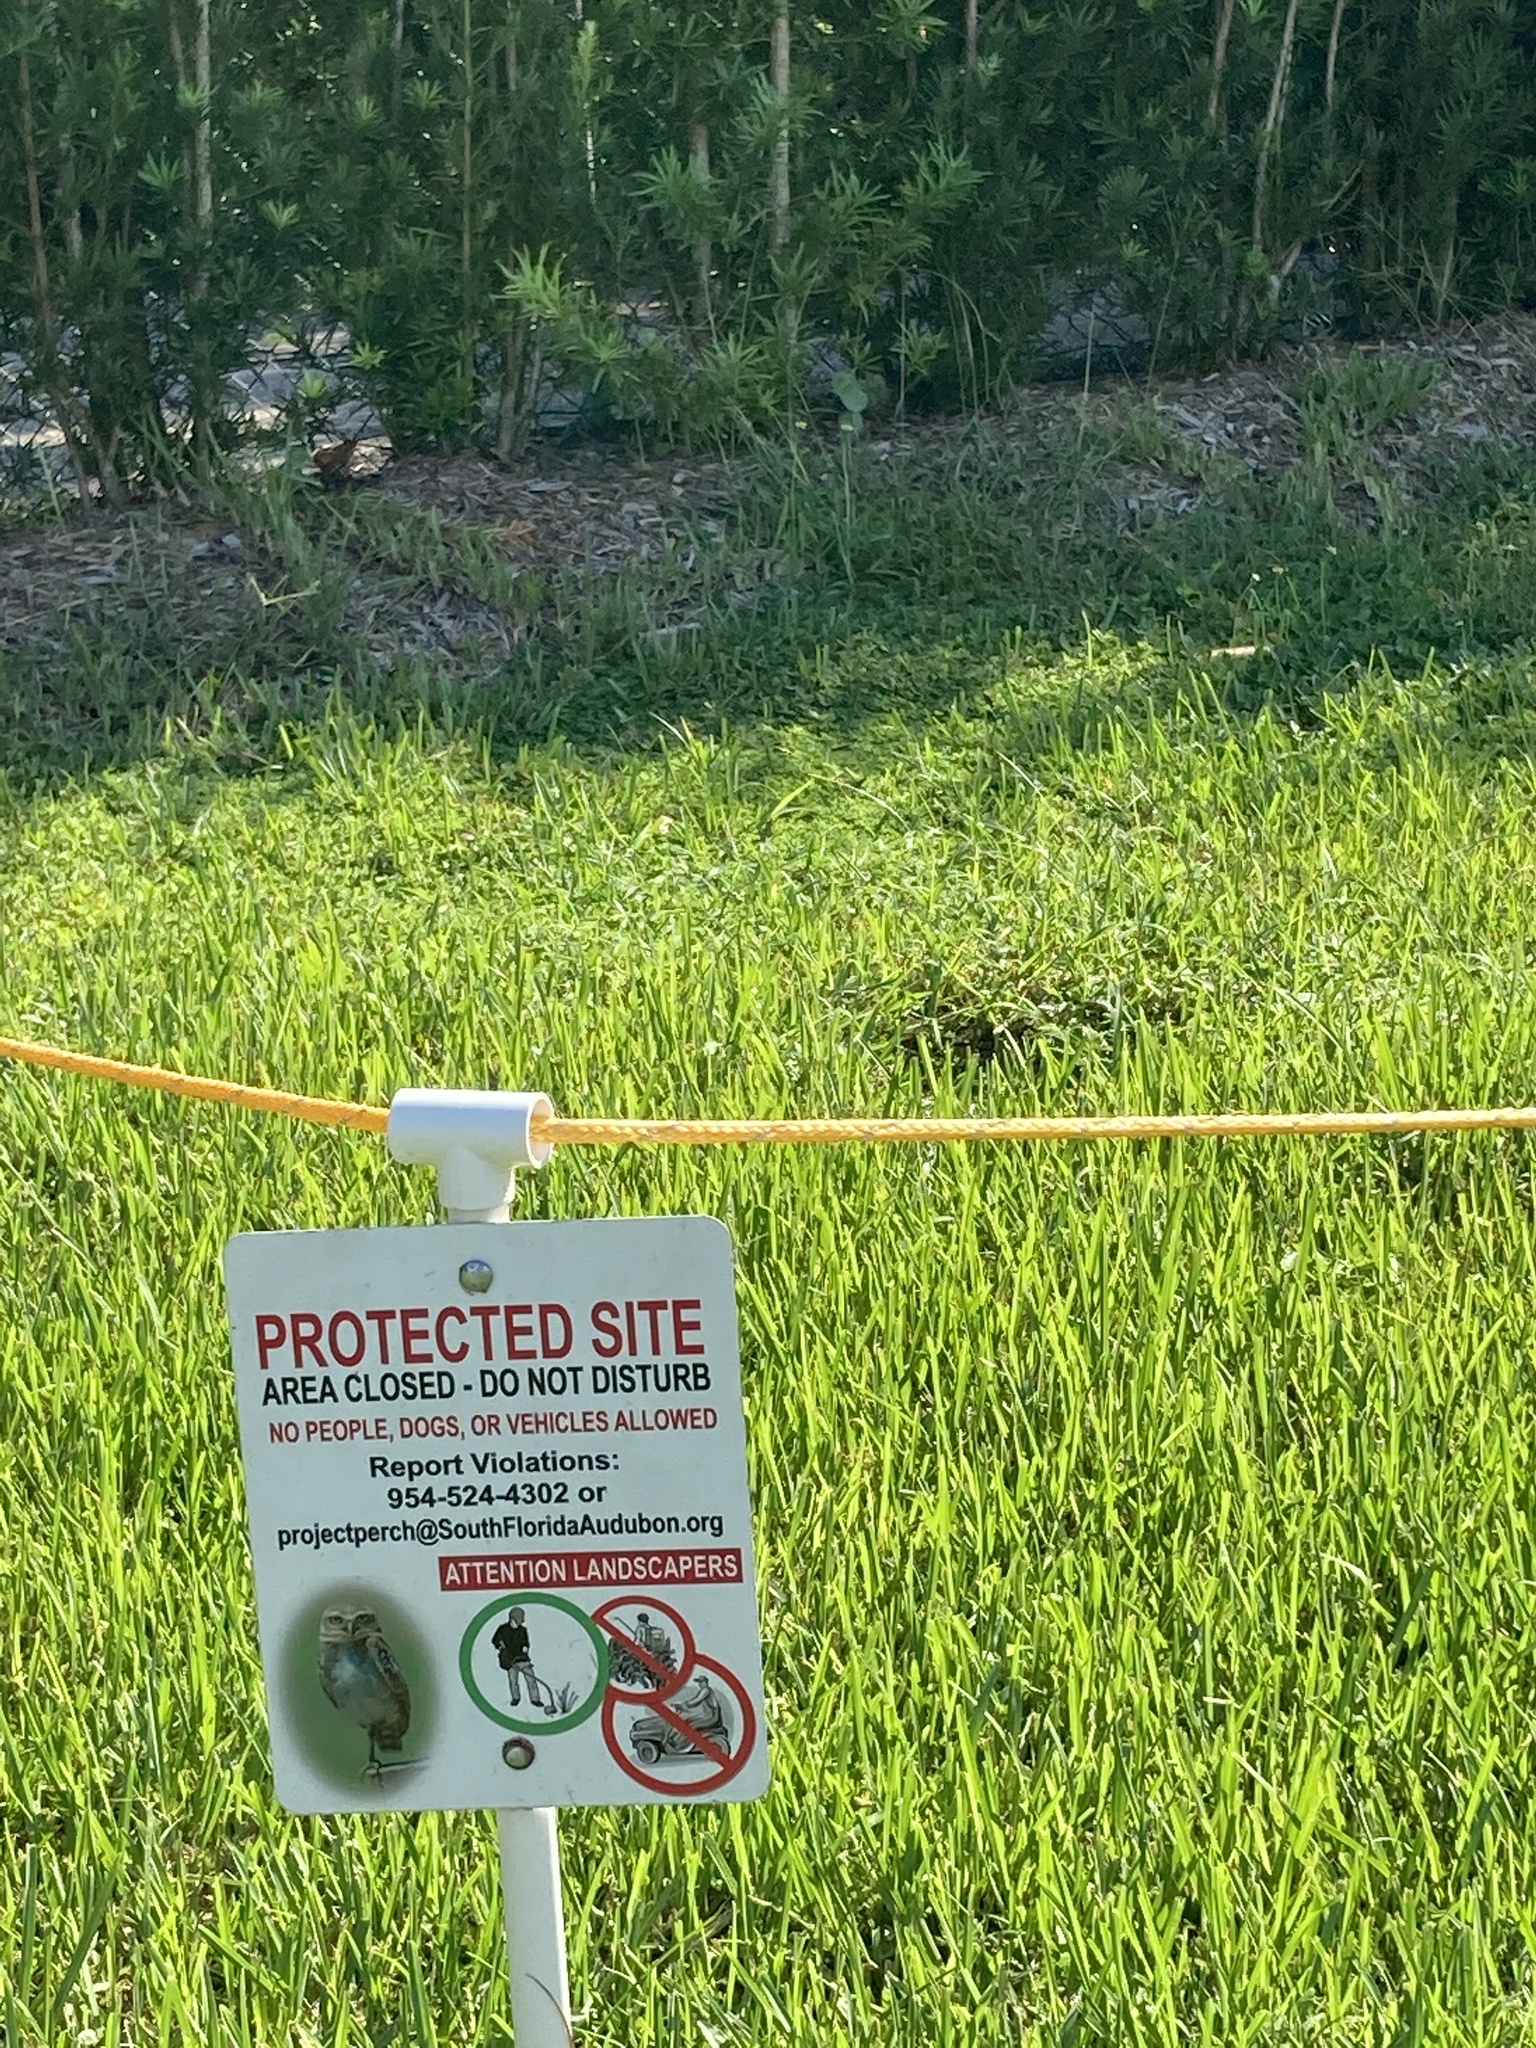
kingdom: Animalia
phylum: Chordata
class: Aves
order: Strigiformes
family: Strigidae
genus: Athene
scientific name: Athene cunicularia
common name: Burrowing owl
